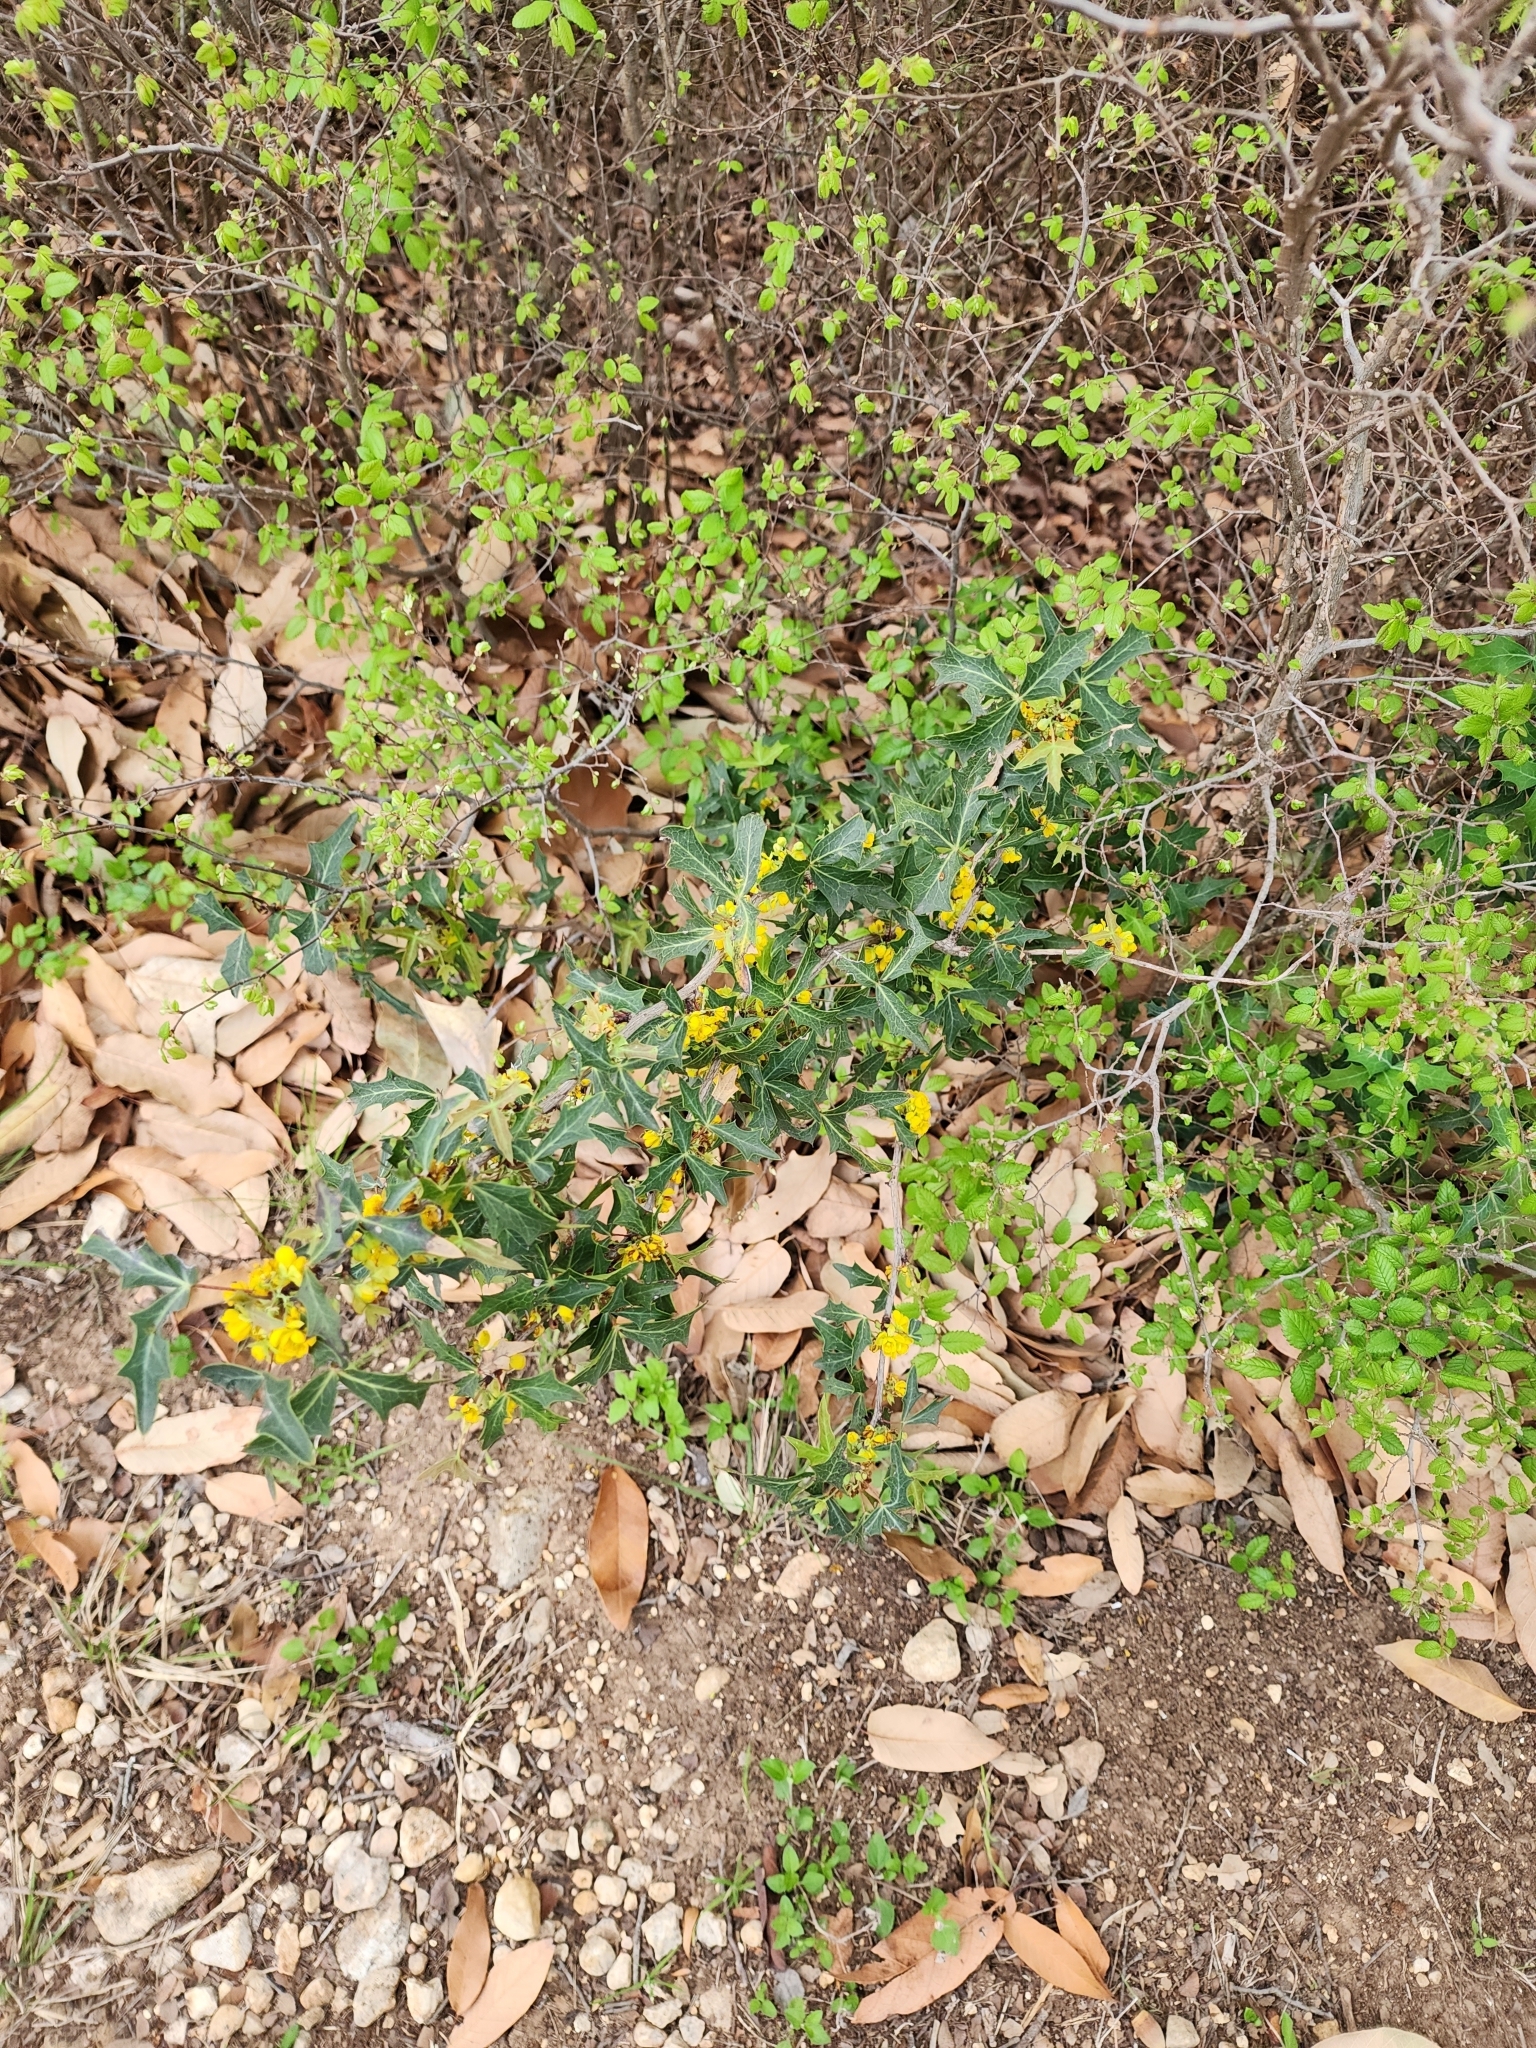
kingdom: Plantae
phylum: Tracheophyta
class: Magnoliopsida
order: Ranunculales
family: Berberidaceae
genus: Alloberberis
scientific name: Alloberberis trifoliolata
